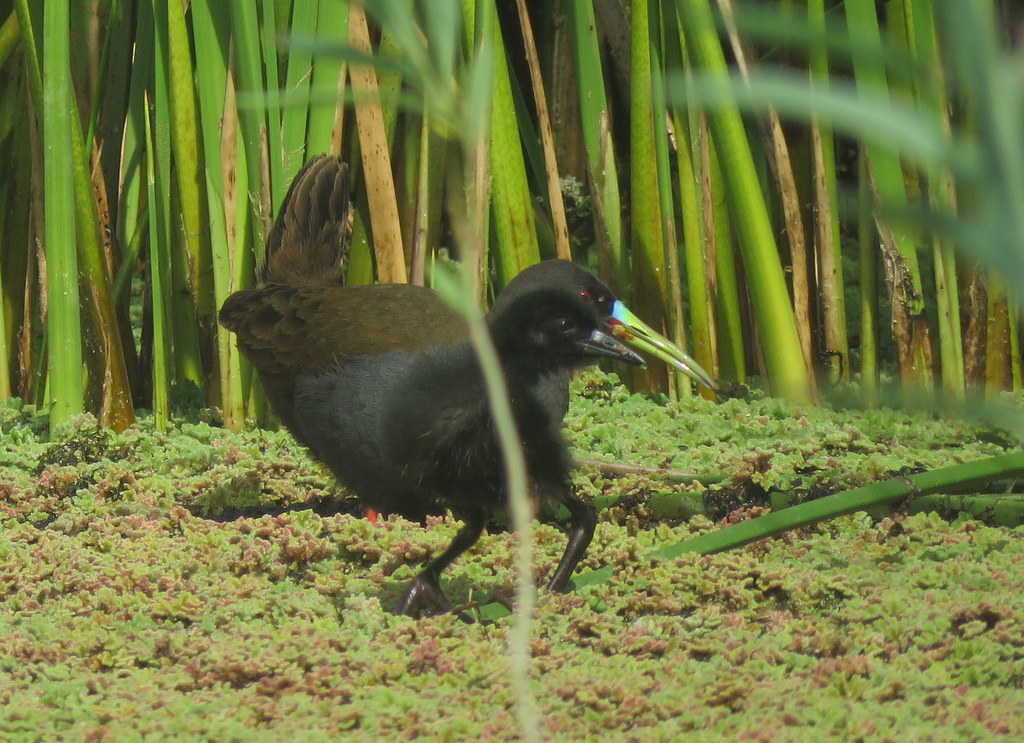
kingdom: Animalia
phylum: Chordata
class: Aves
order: Gruiformes
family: Rallidae
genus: Pardirallus
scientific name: Pardirallus sanguinolentus
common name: Plumbeous rail
